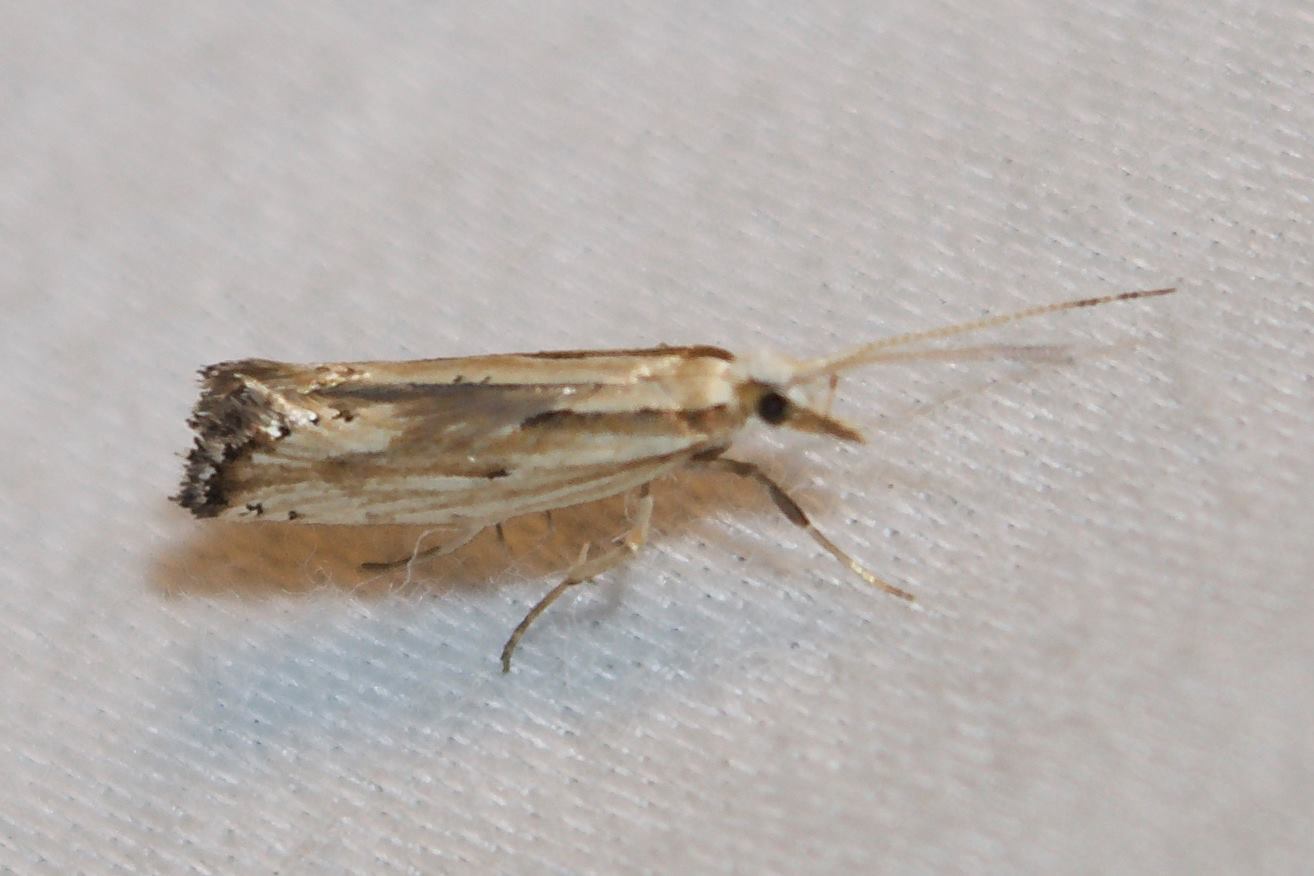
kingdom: Animalia
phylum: Arthropoda
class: Insecta
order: Lepidoptera
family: Plutellidae
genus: Plutella
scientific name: Plutella porrectella
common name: Dame's rocket moth
